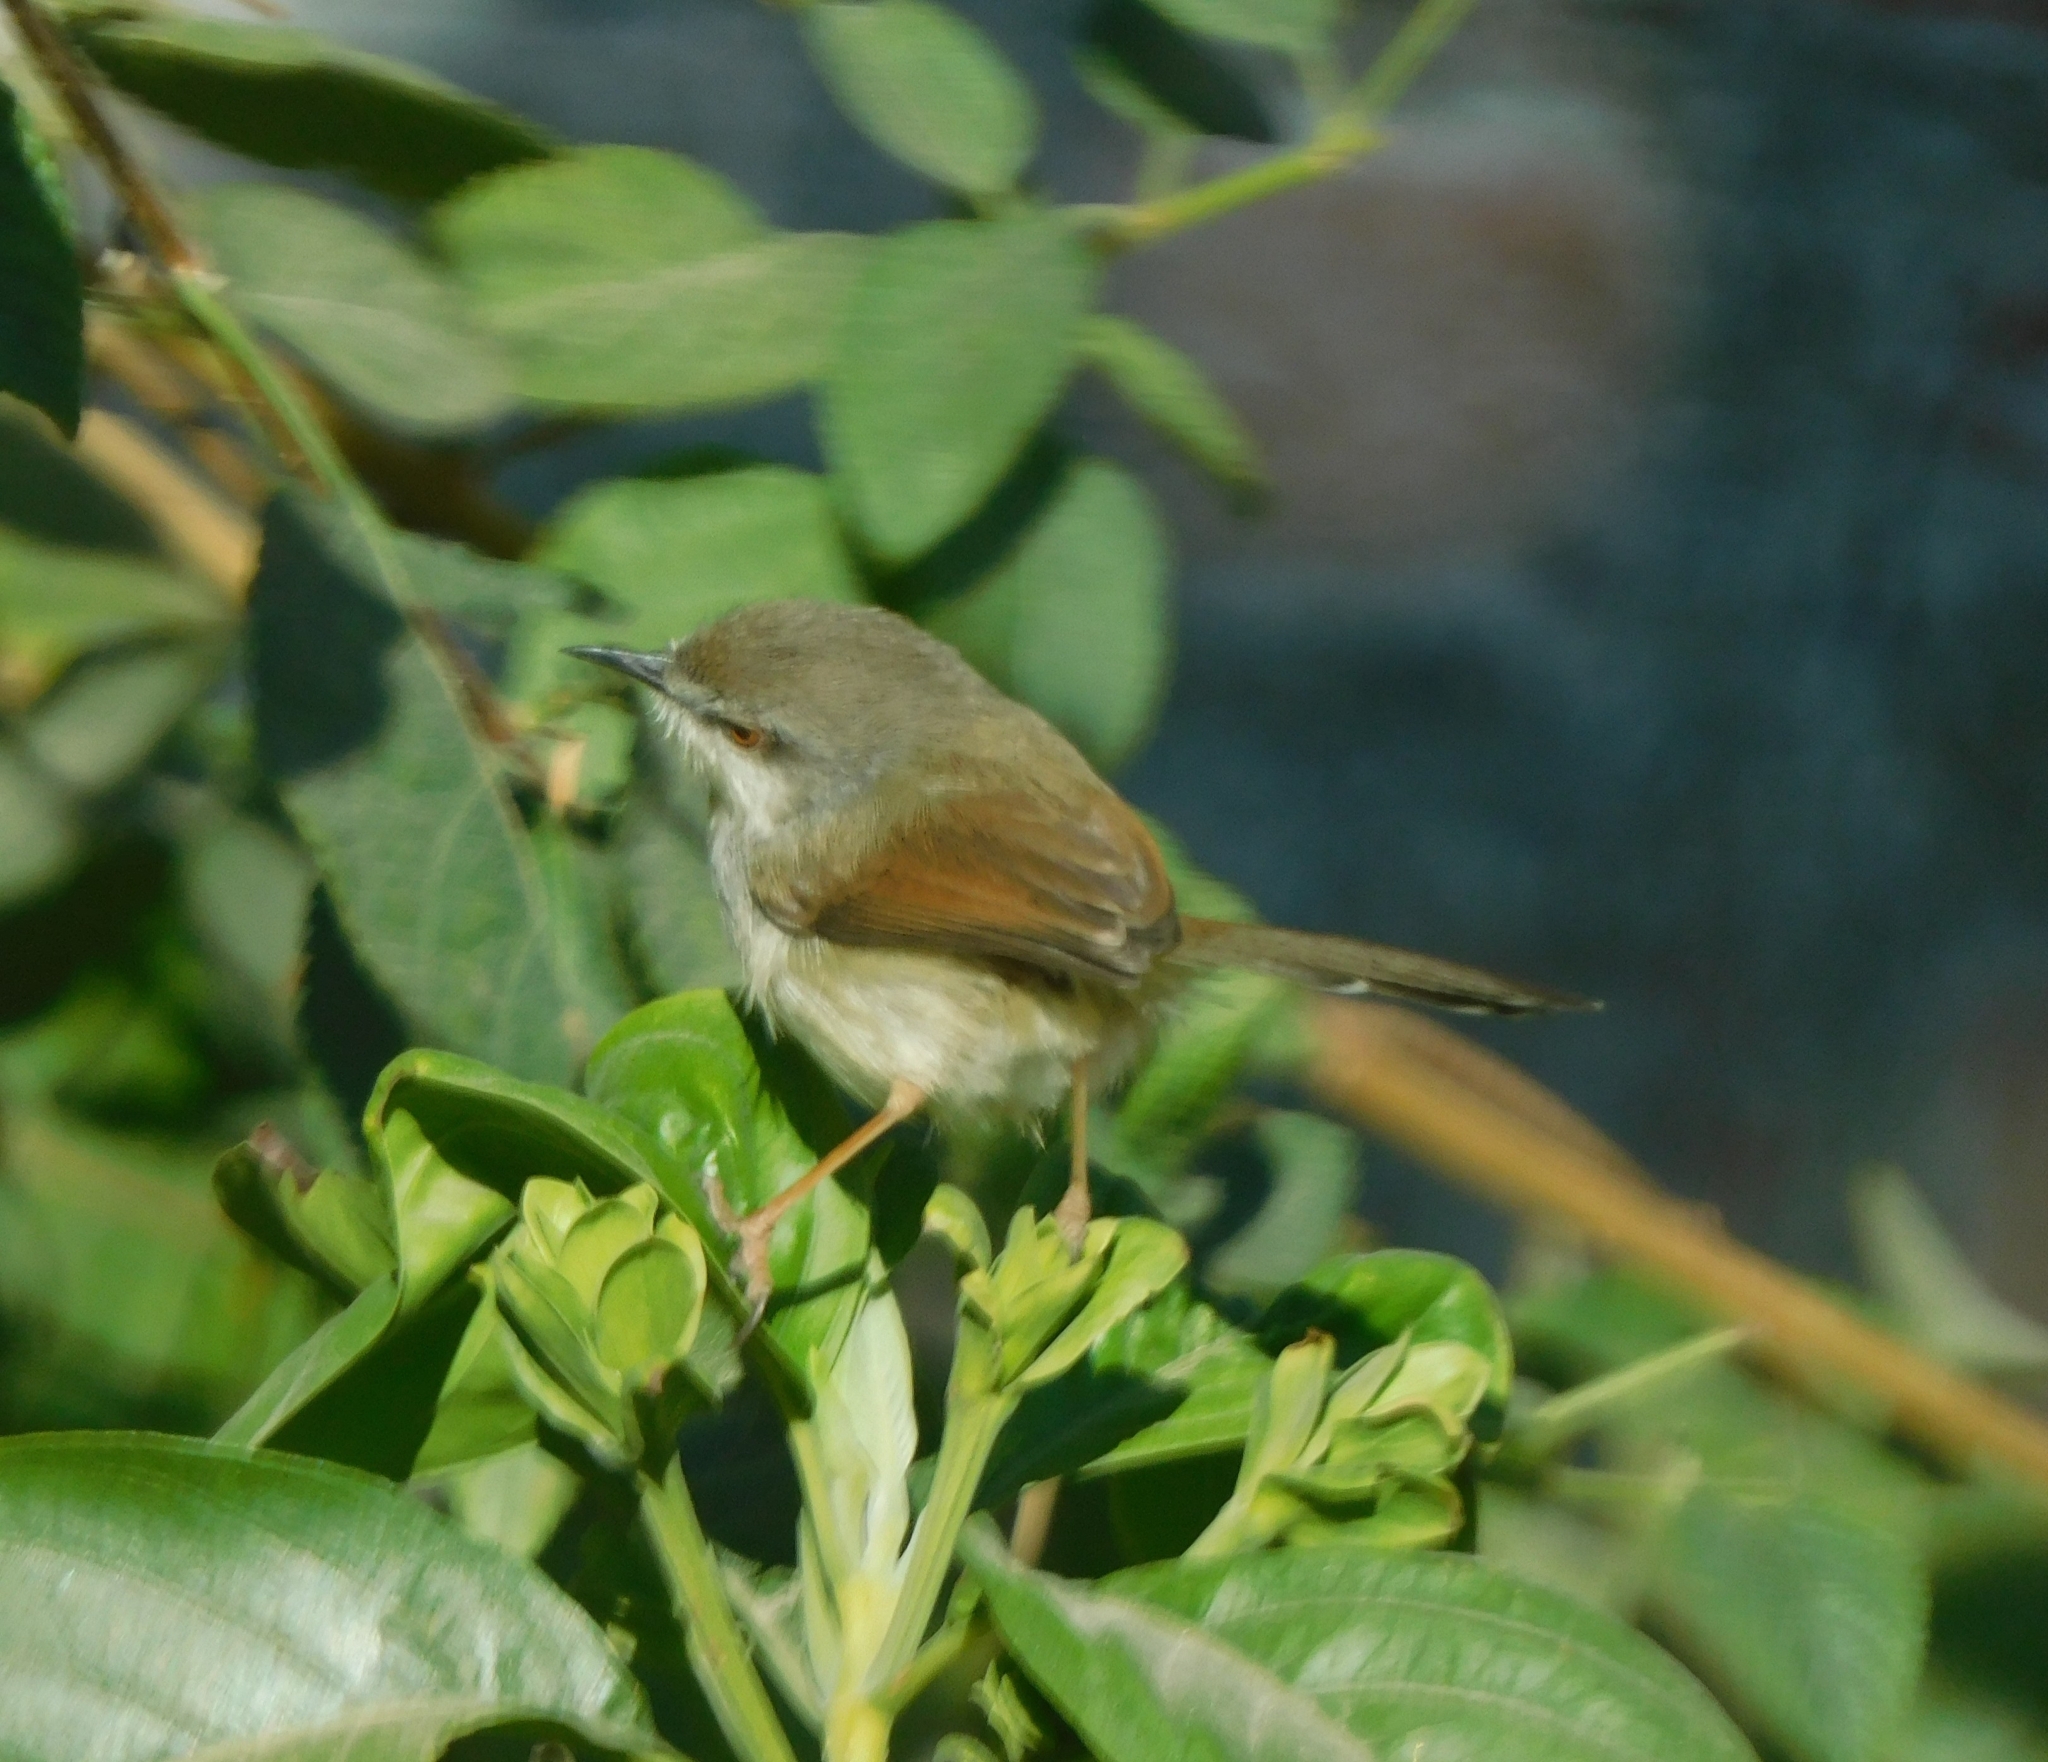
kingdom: Animalia
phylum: Chordata
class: Aves
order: Passeriformes
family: Cisticolidae
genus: Prinia
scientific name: Prinia hodgsonii
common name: Grey-breasted prinia
